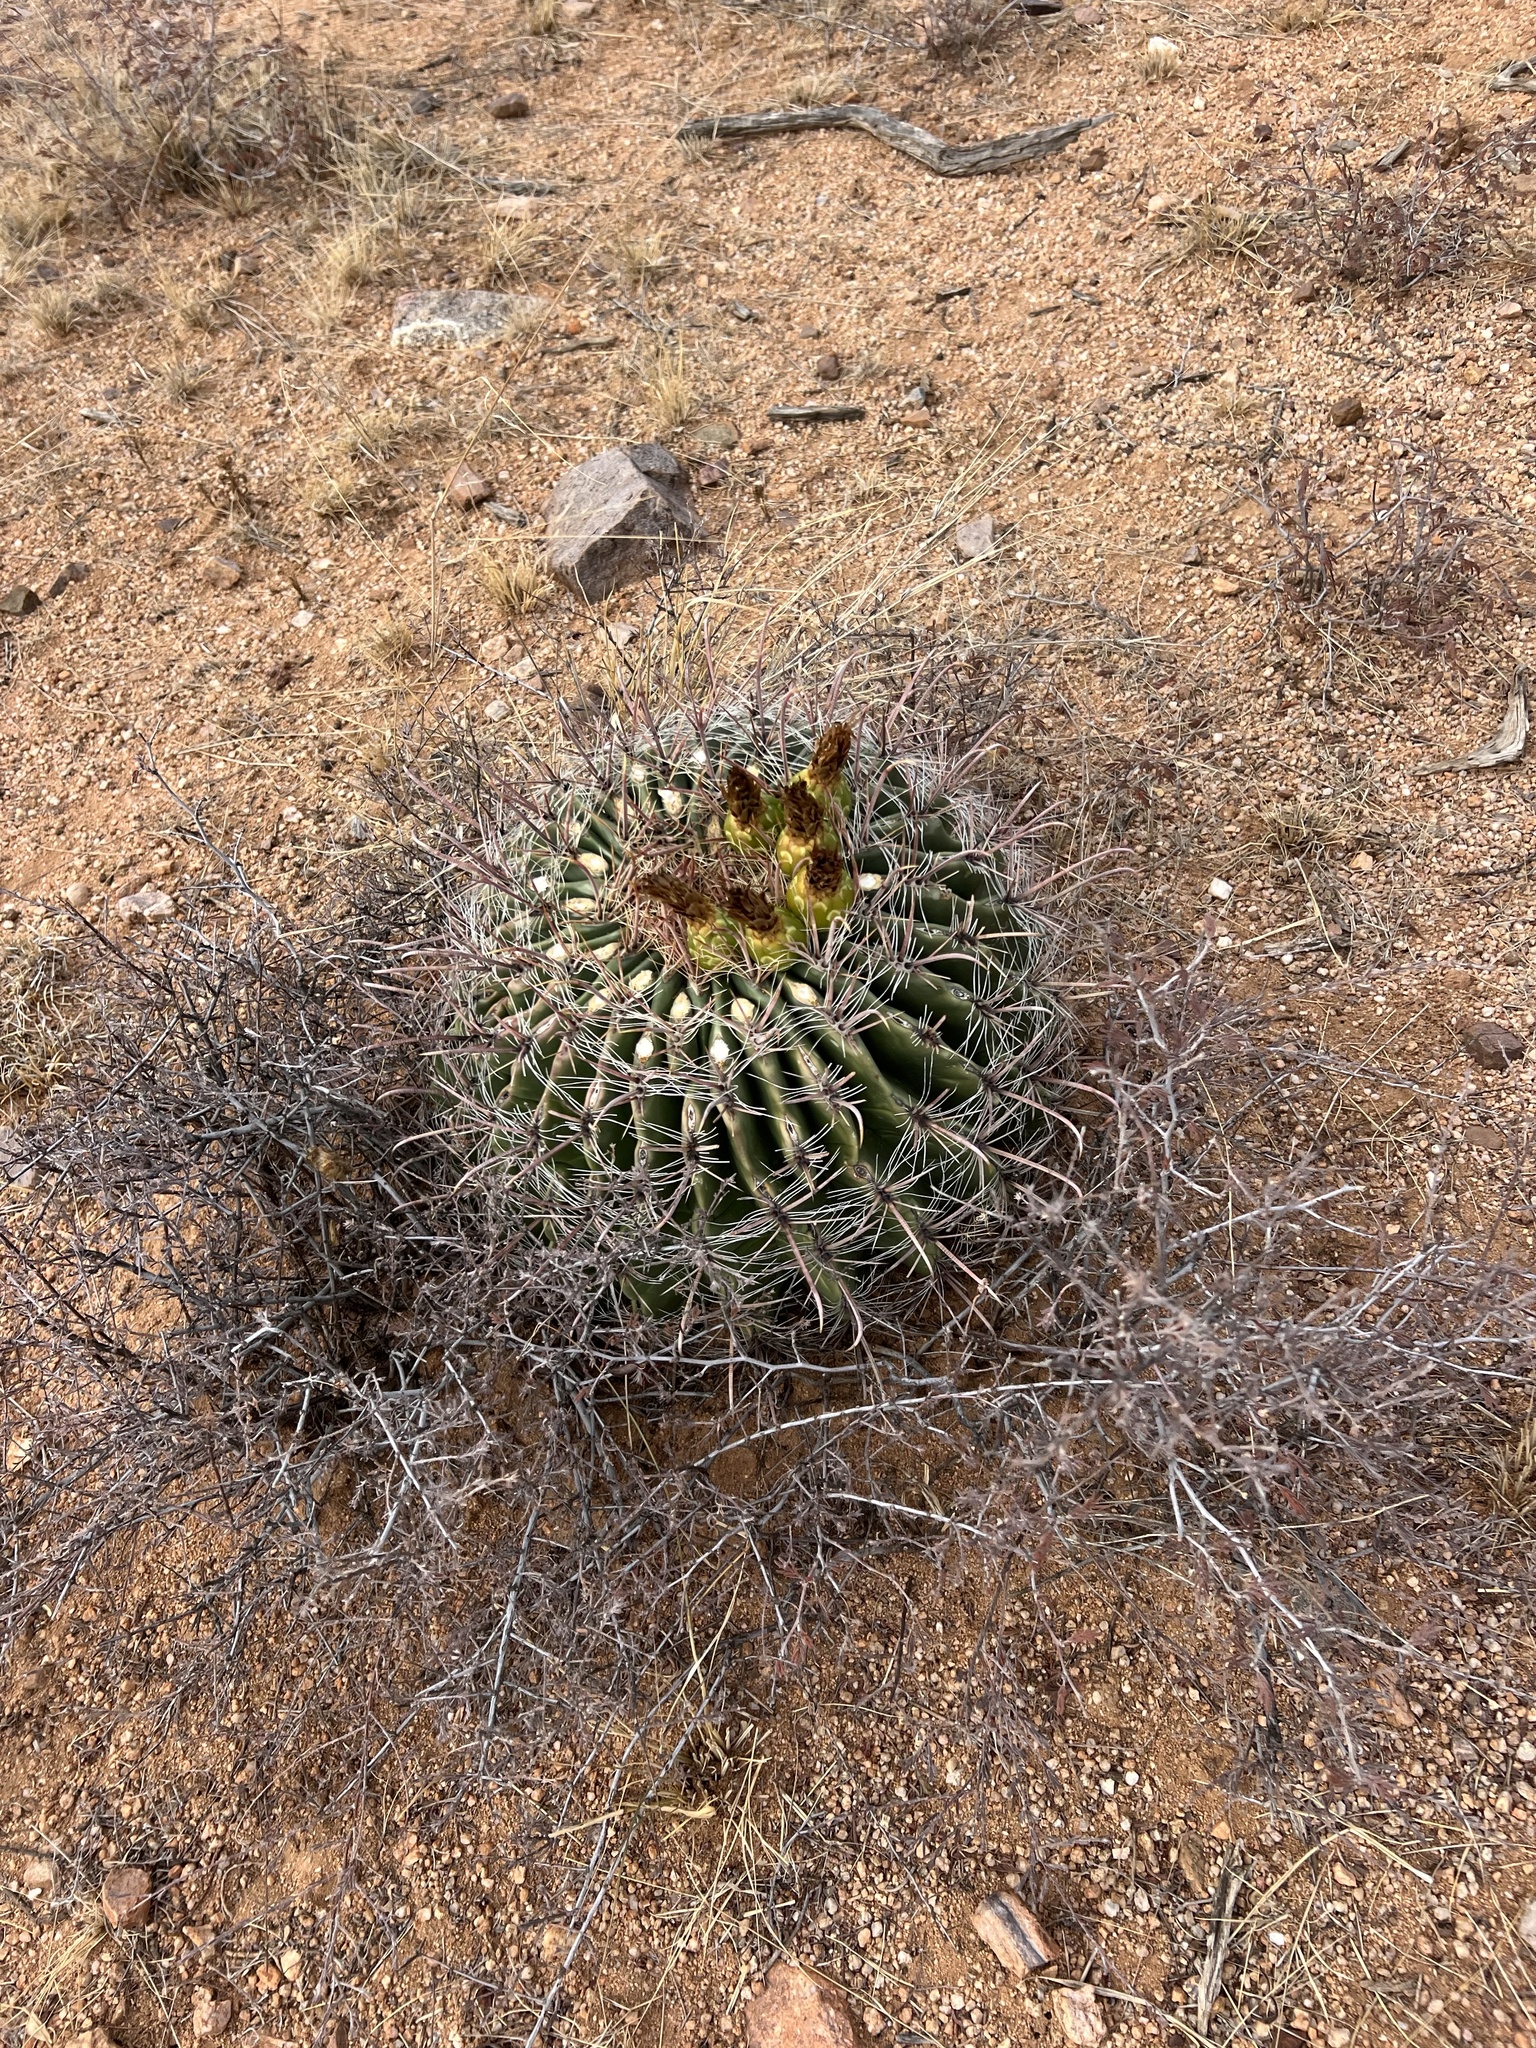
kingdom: Plantae
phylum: Tracheophyta
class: Magnoliopsida
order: Caryophyllales
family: Cactaceae
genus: Ferocactus
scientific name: Ferocactus wislizeni
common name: Candy barrel cactus
